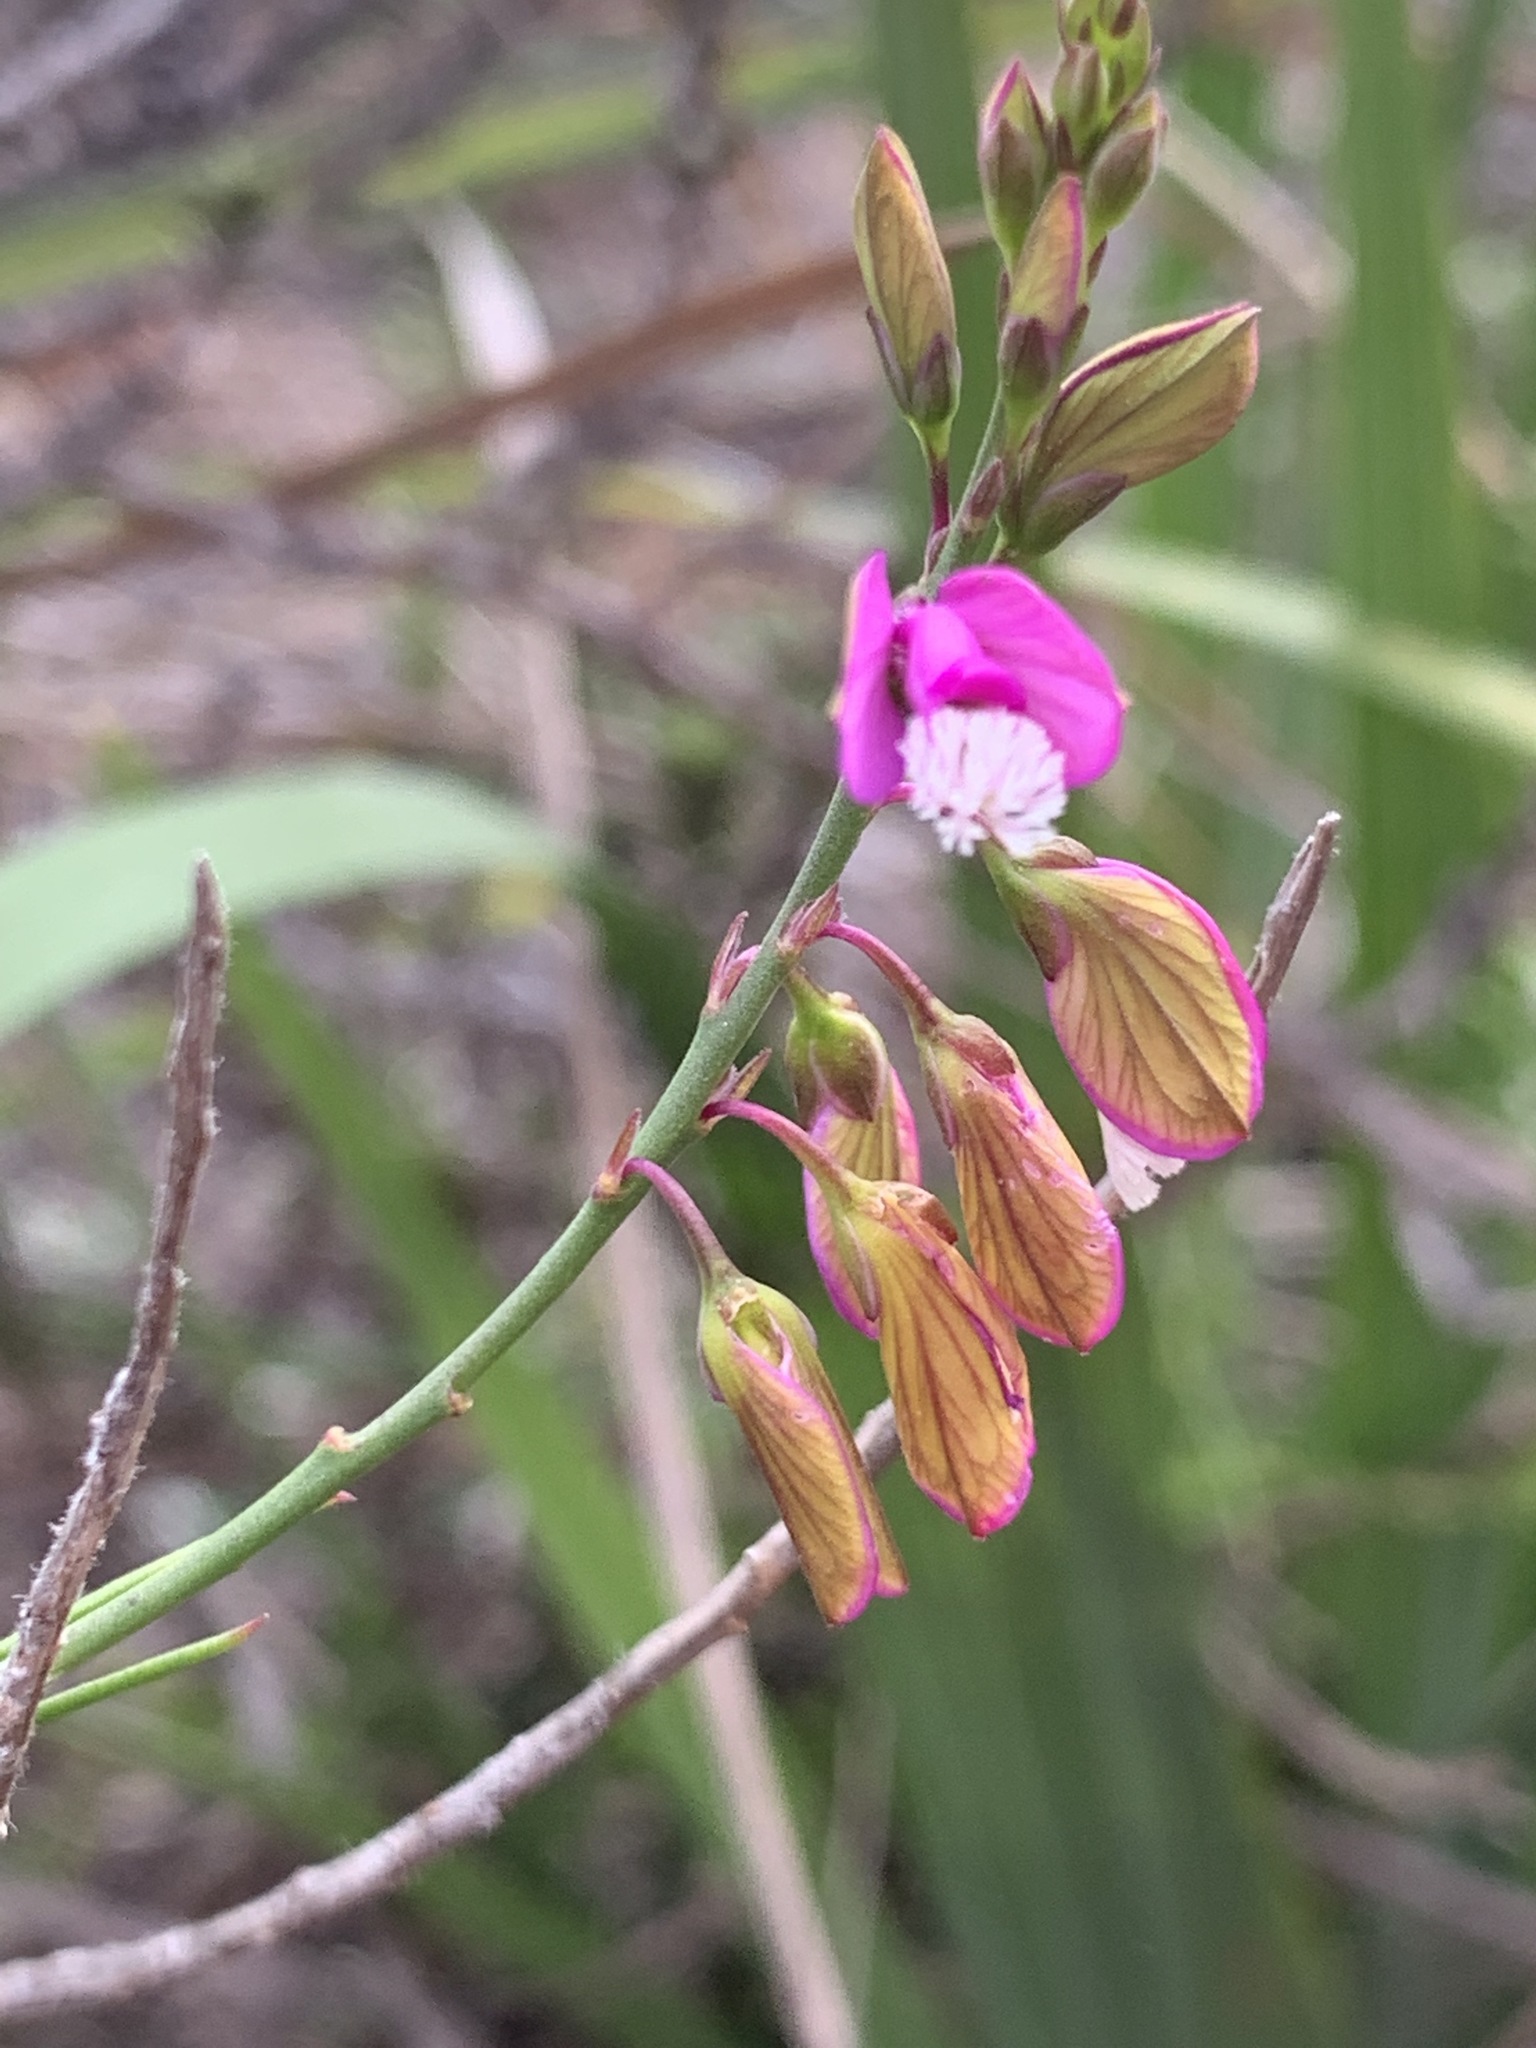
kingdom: Plantae
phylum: Tracheophyta
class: Magnoliopsida
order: Fabales
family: Polygalaceae
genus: Polygala
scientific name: Polygala garcini
